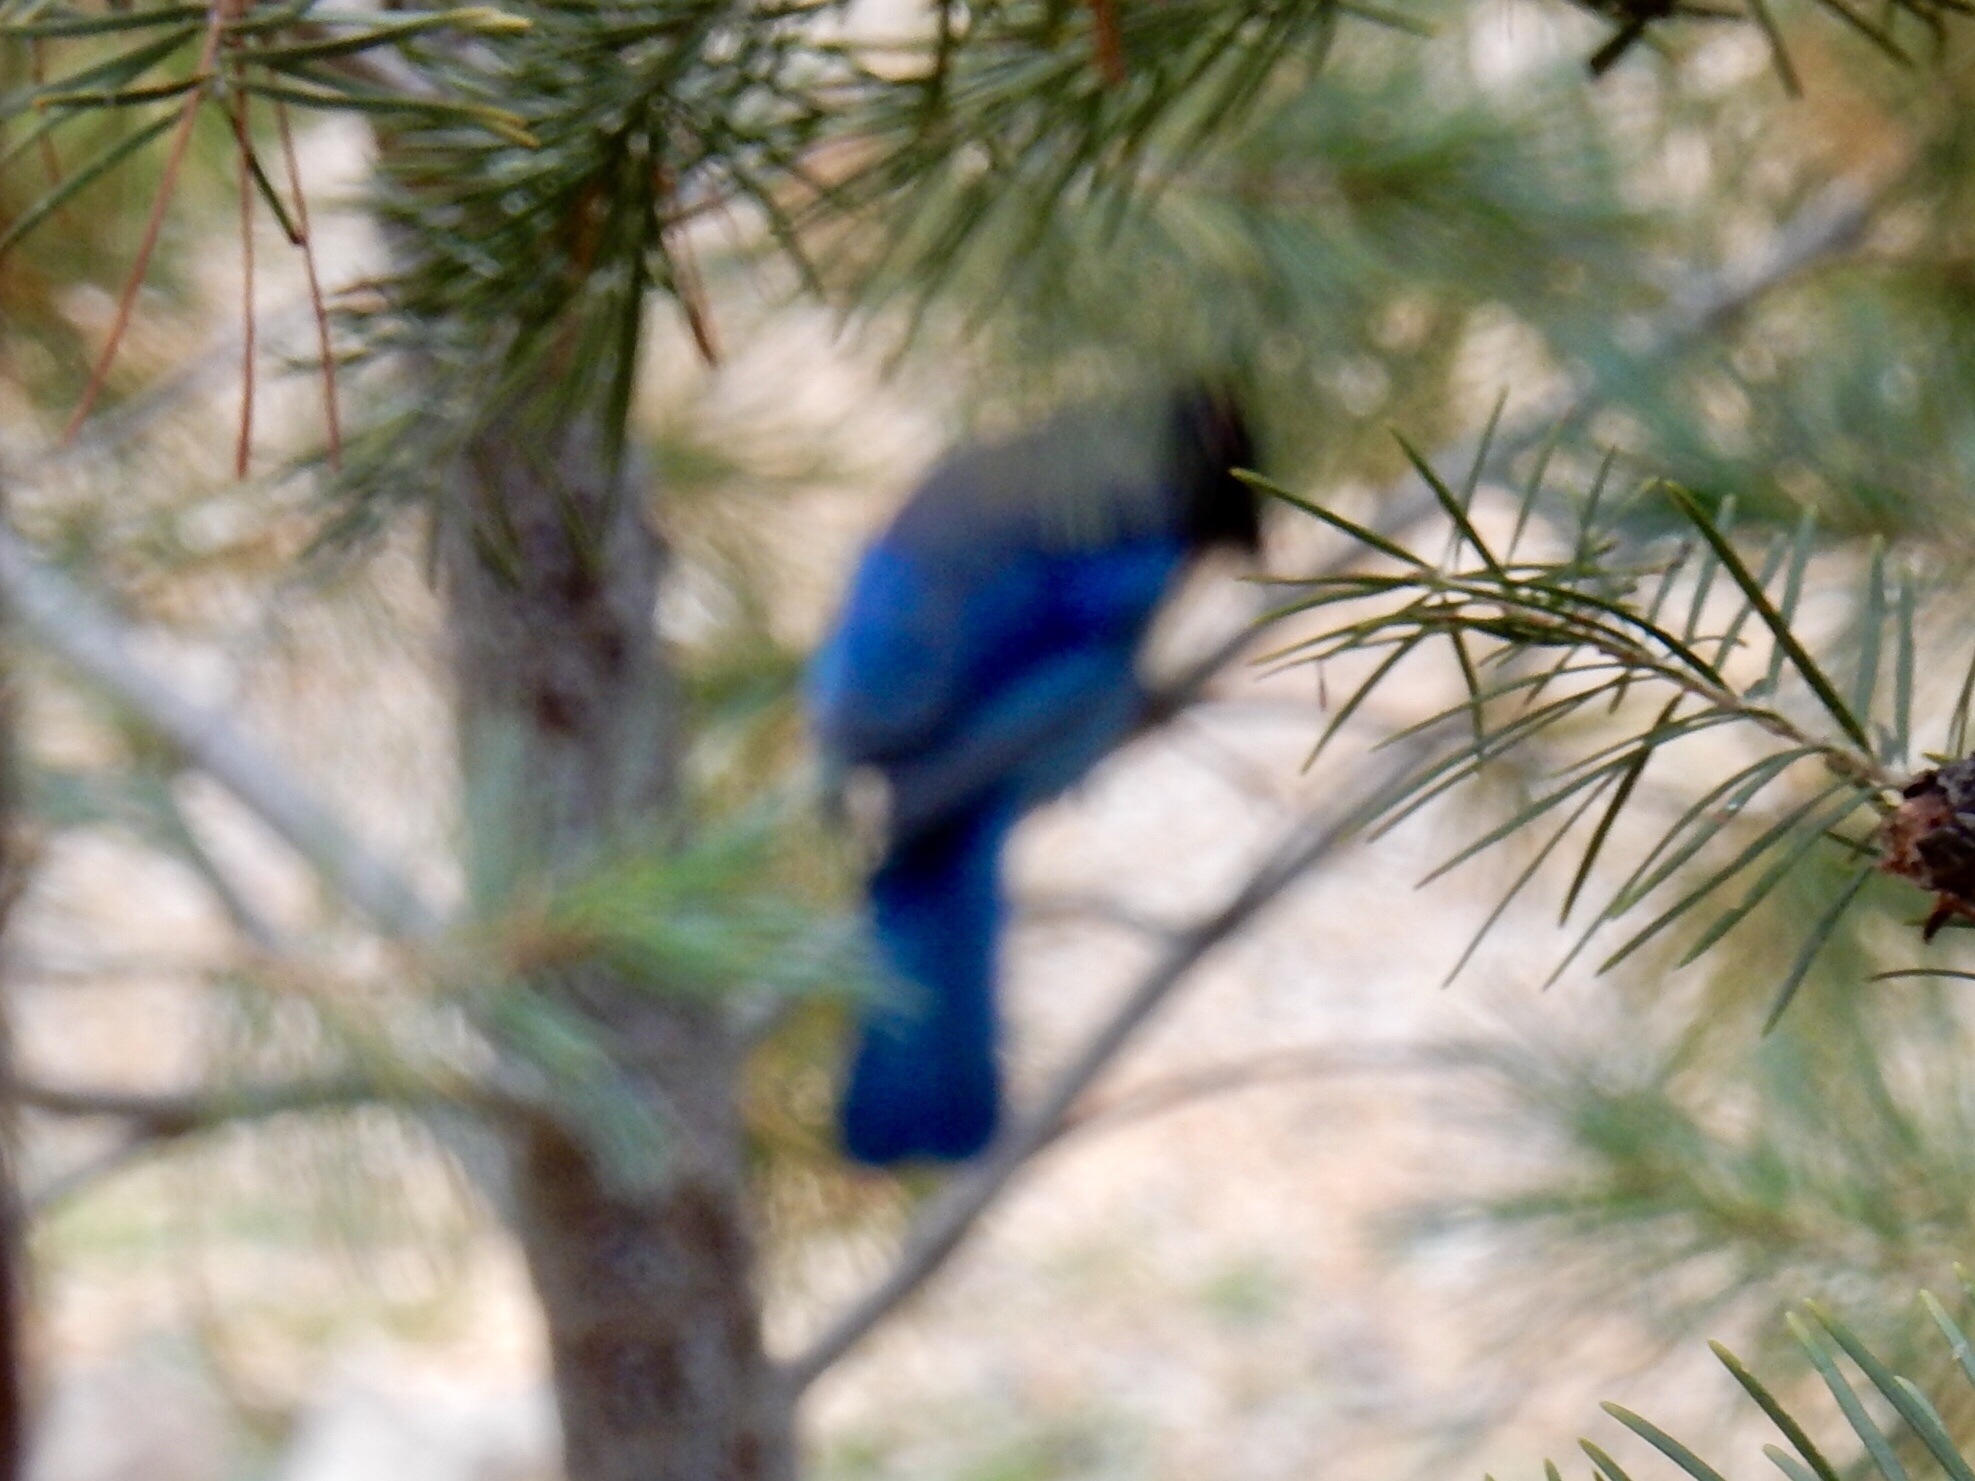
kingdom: Animalia
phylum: Chordata
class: Aves
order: Passeriformes
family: Corvidae
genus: Cyanocitta
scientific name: Cyanocitta stelleri
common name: Steller's jay
